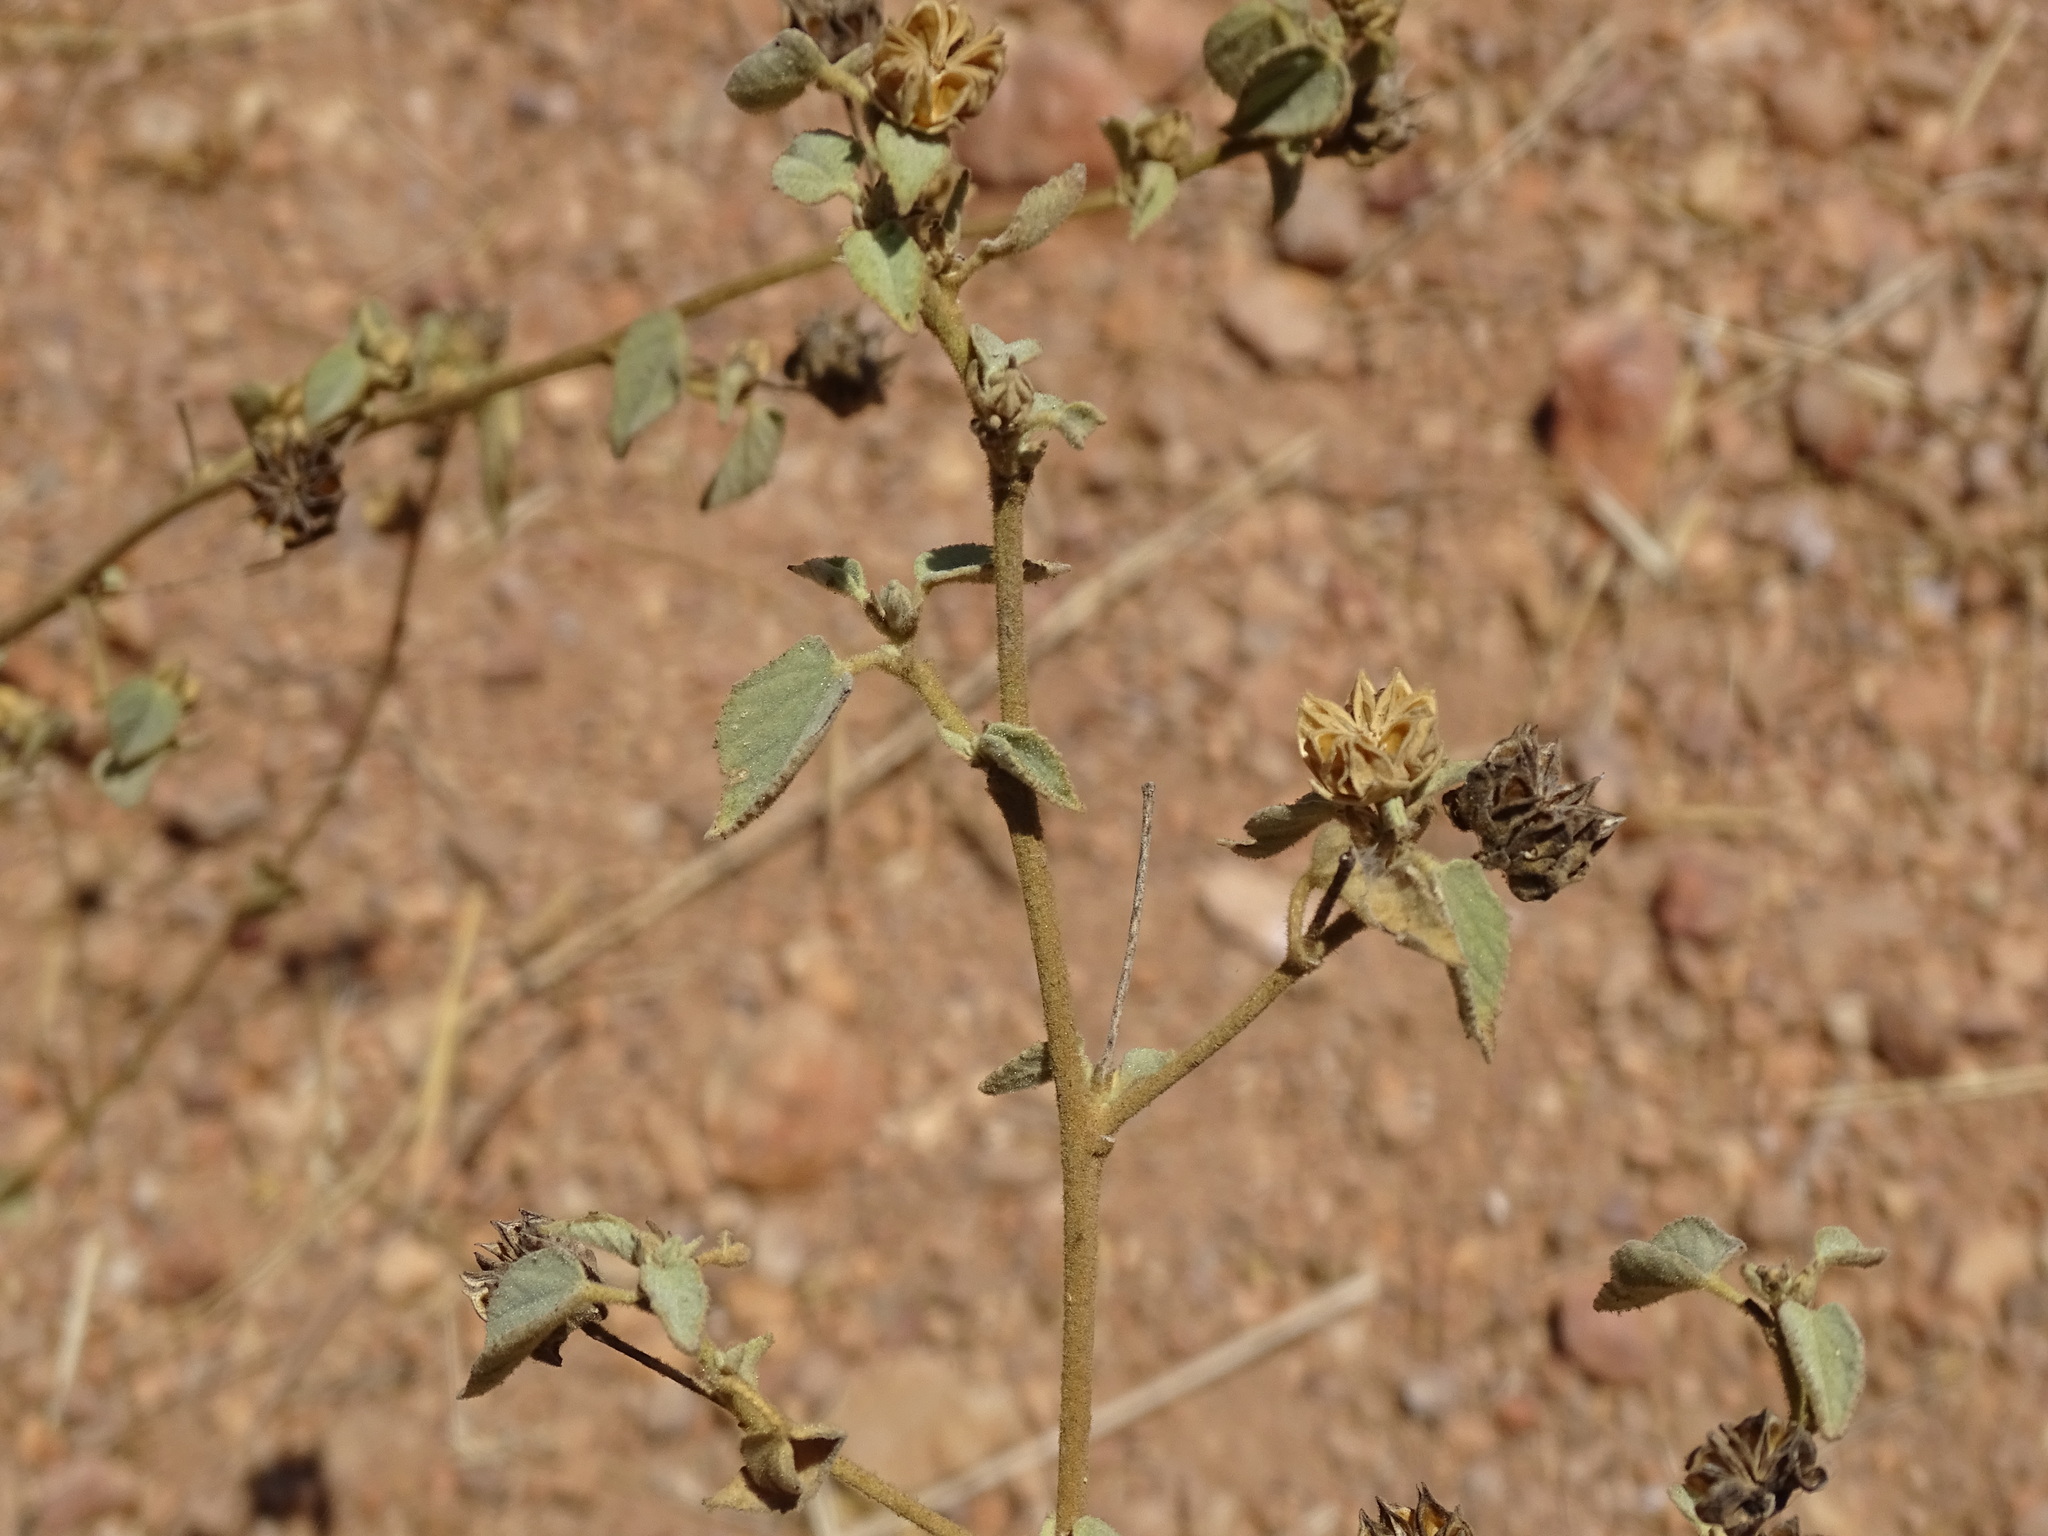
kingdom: Plantae
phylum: Tracheophyta
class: Magnoliopsida
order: Malvales
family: Malvaceae
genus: Abutilon
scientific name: Abutilon abutiloides
